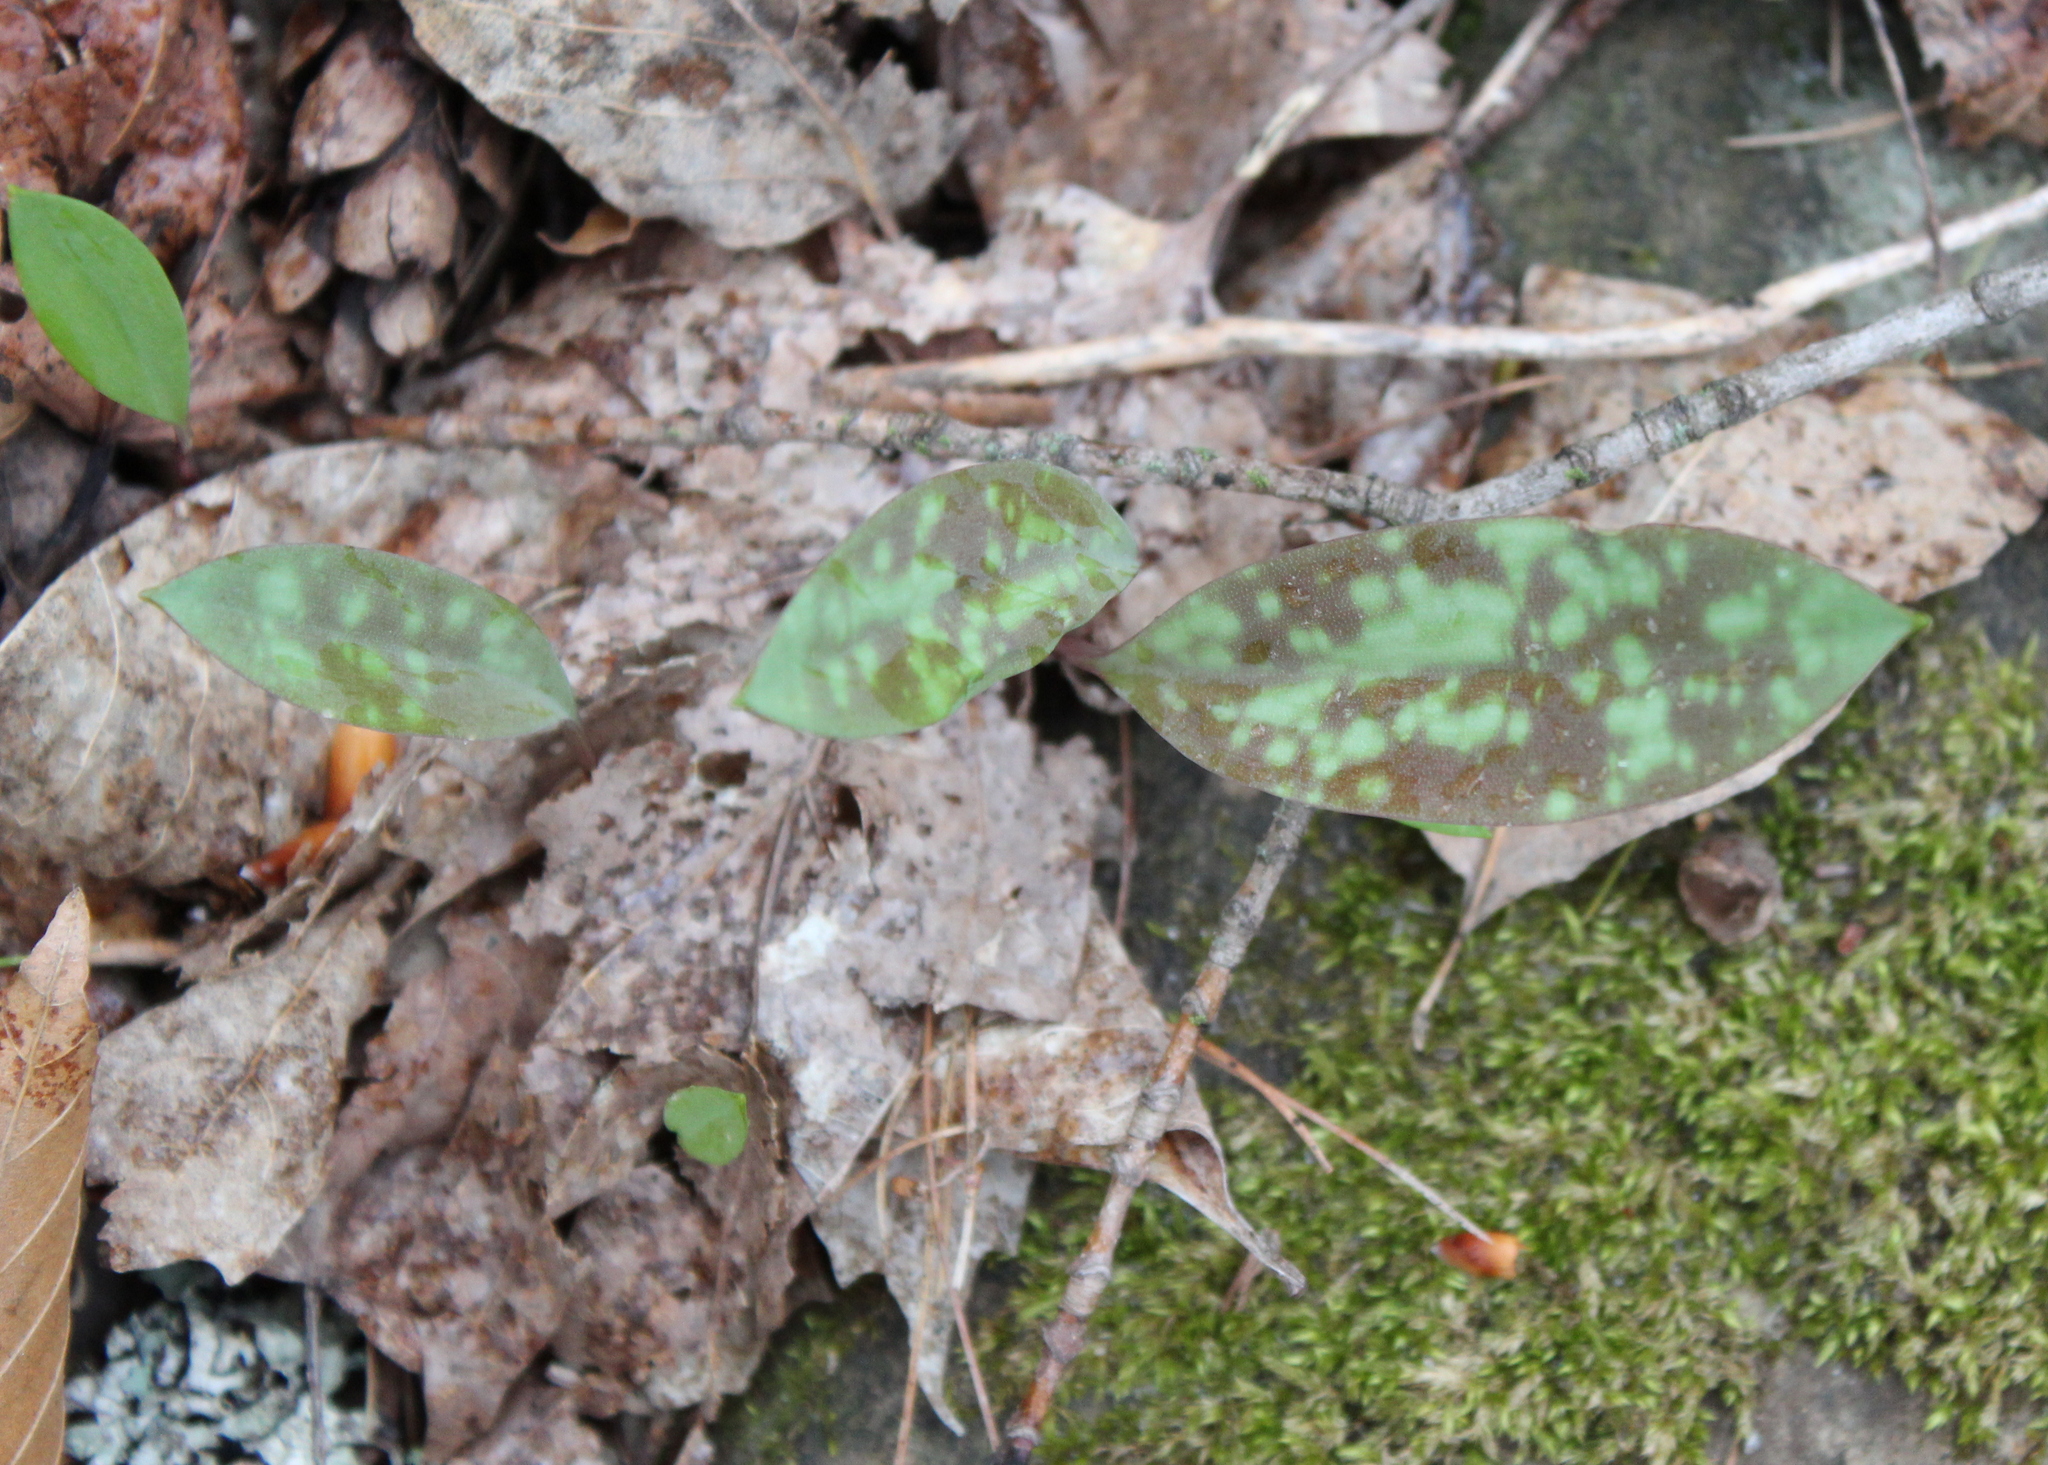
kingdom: Plantae
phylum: Tracheophyta
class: Liliopsida
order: Liliales
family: Liliaceae
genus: Erythronium
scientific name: Erythronium americanum
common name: Yellow adder's-tongue
